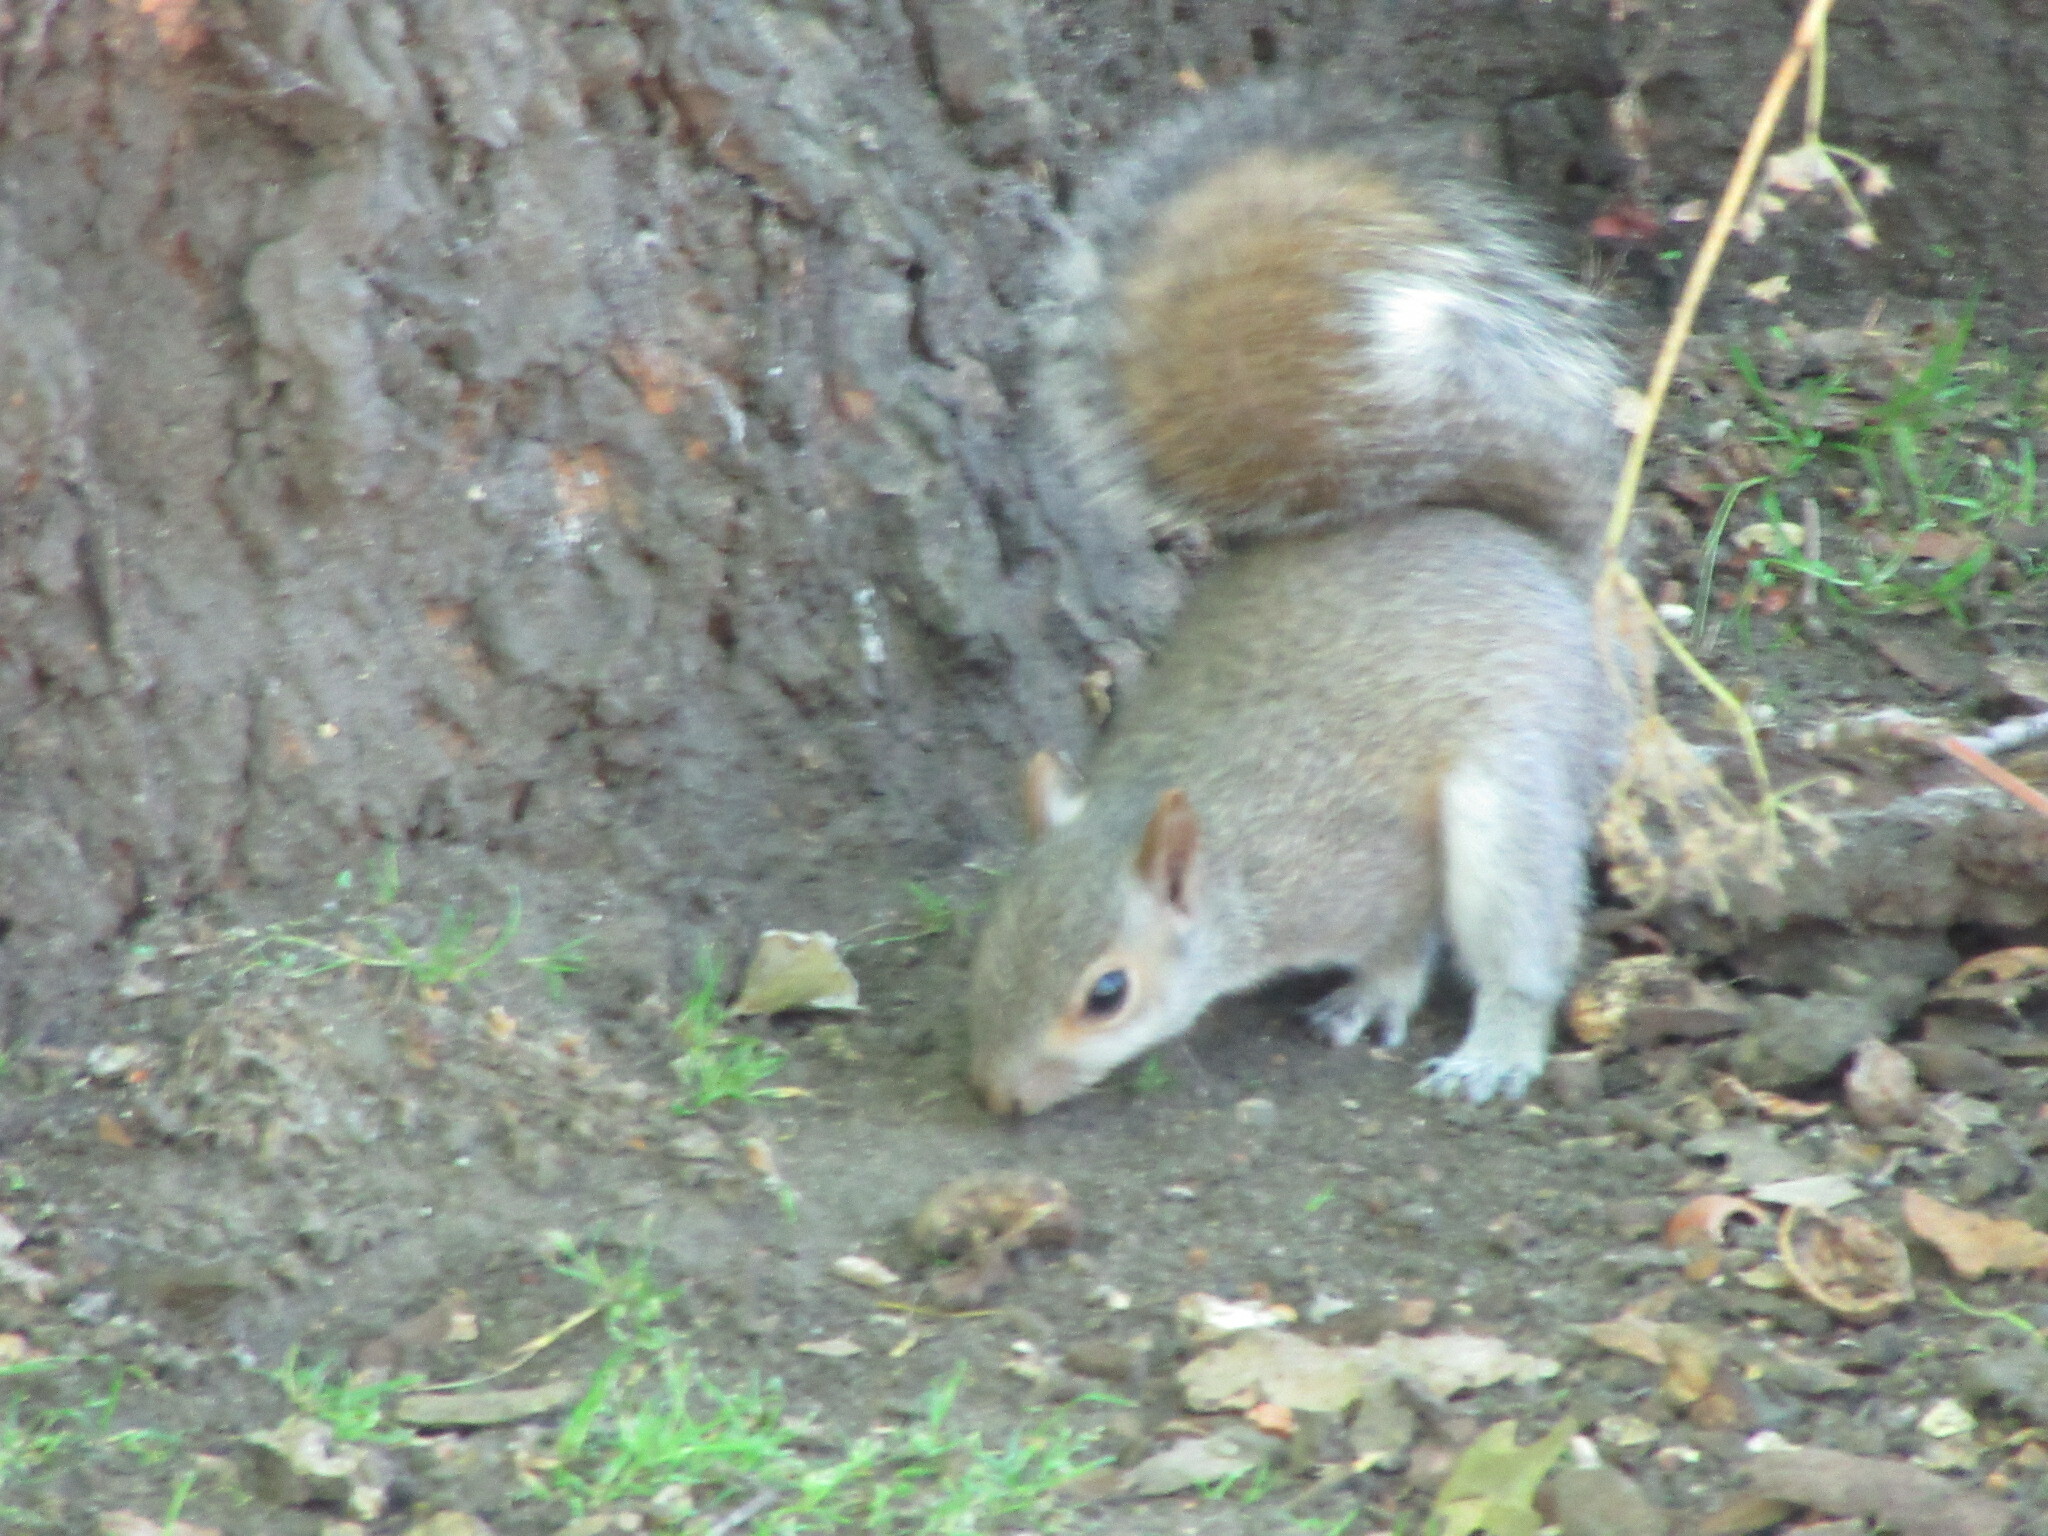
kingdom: Animalia
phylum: Chordata
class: Mammalia
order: Rodentia
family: Sciuridae
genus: Sciurus
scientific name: Sciurus carolinensis
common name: Eastern gray squirrel
